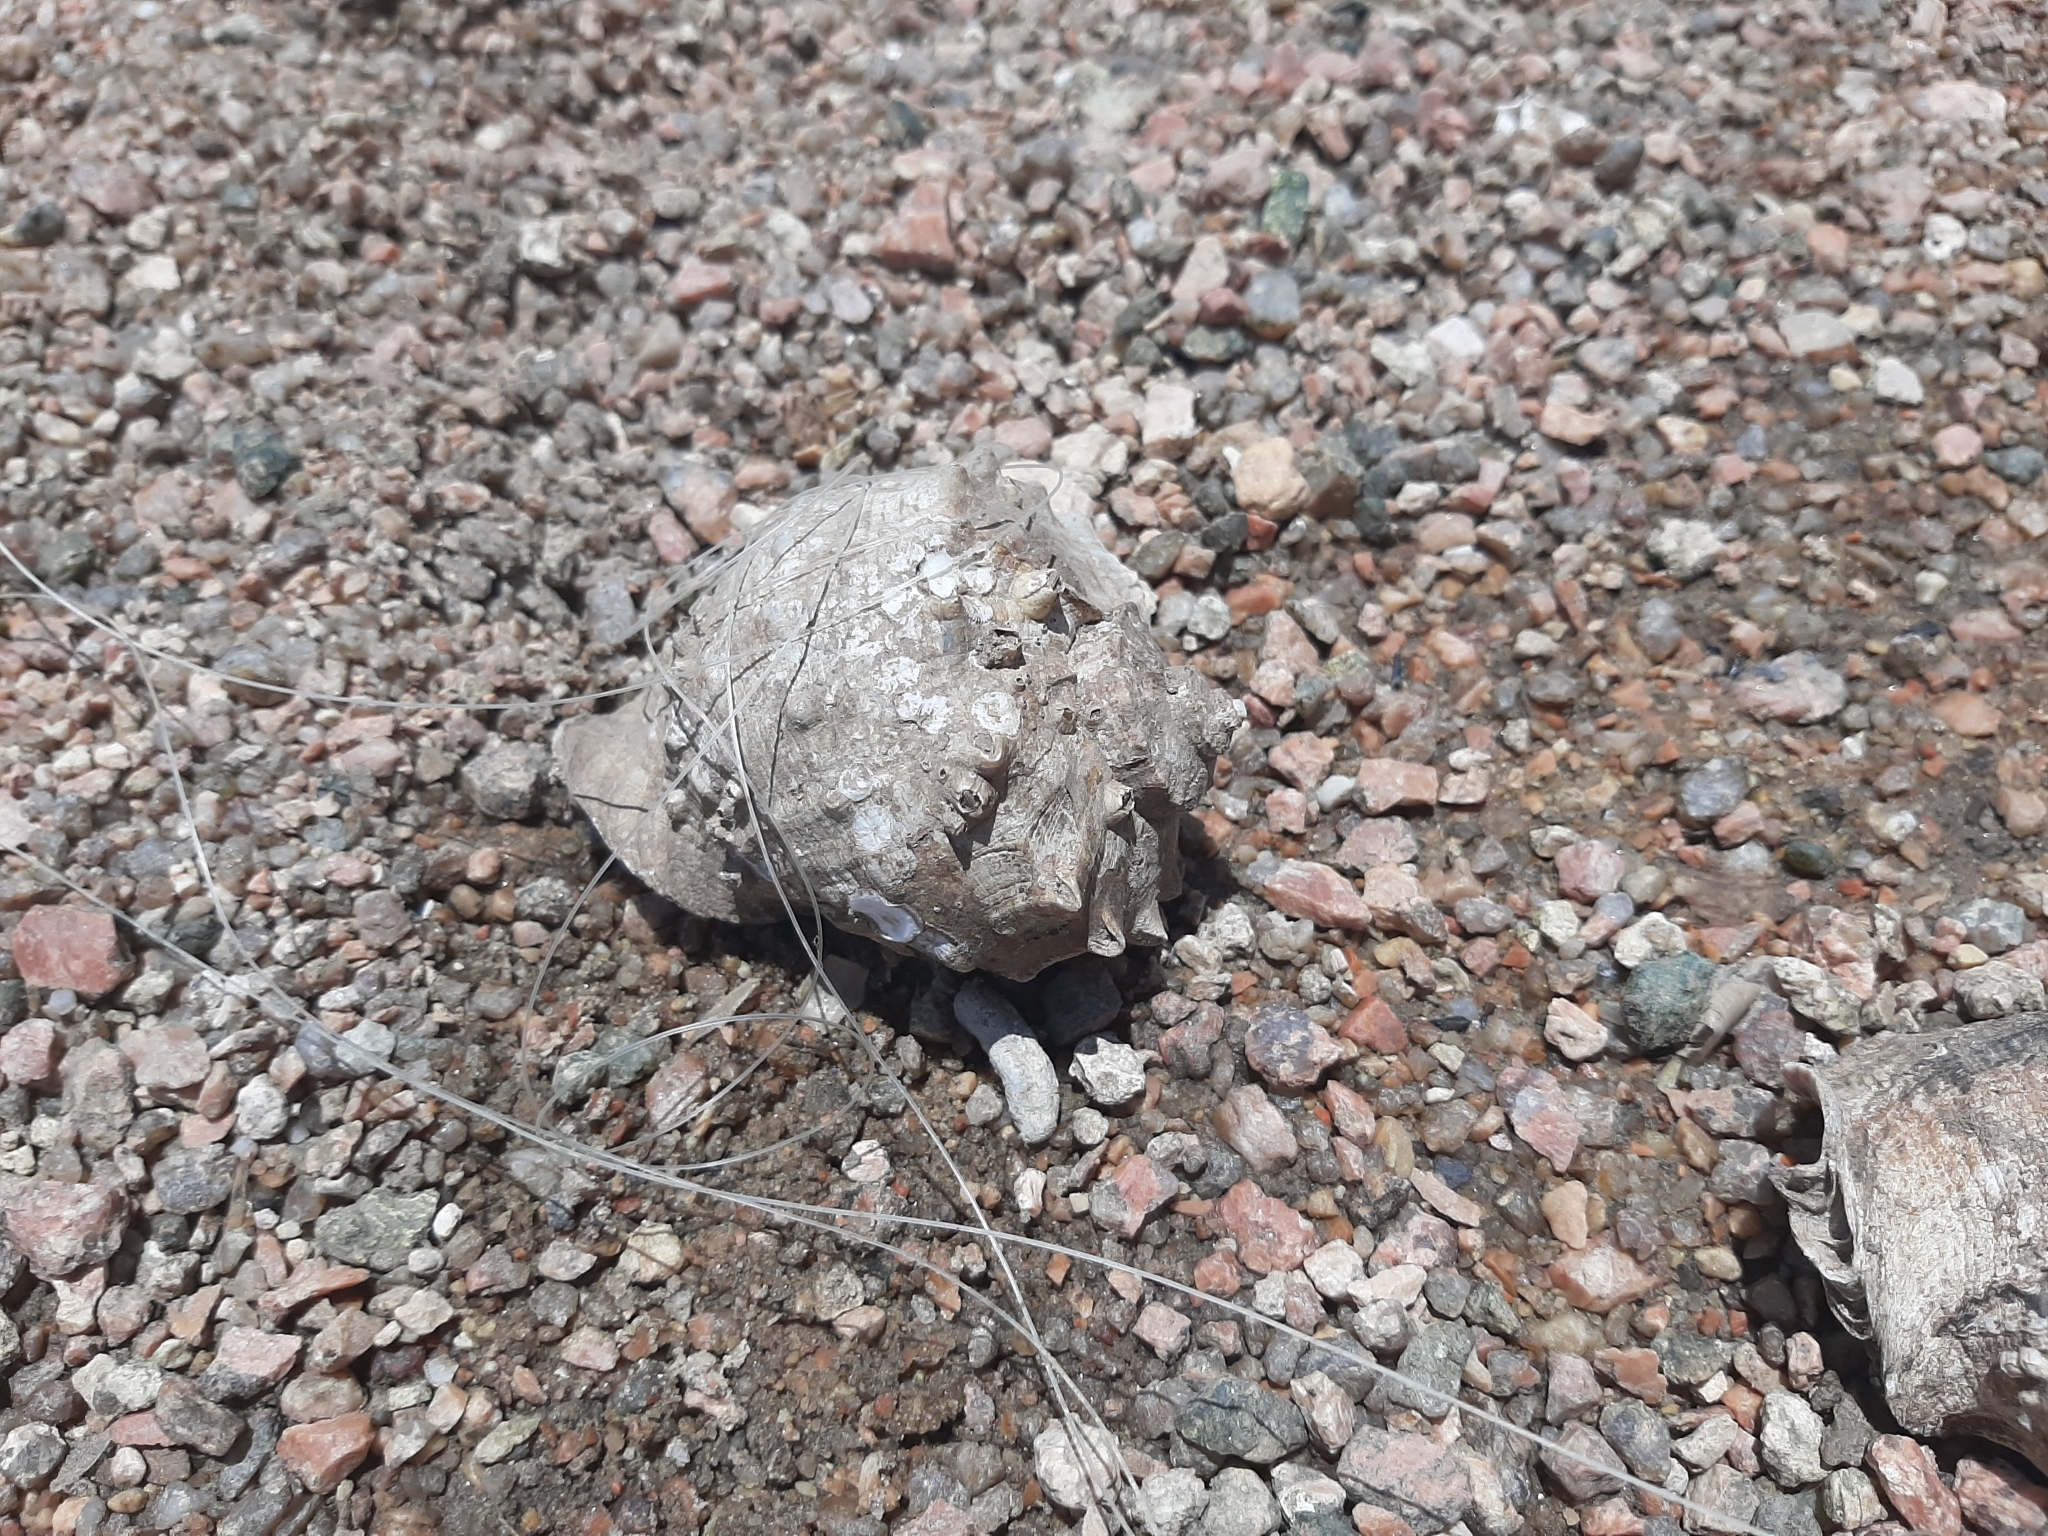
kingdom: Animalia
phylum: Mollusca
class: Gastropoda
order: Neogastropoda
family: Muricidae
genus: Rapana
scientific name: Rapana venosa
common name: Veined rapa whelk
